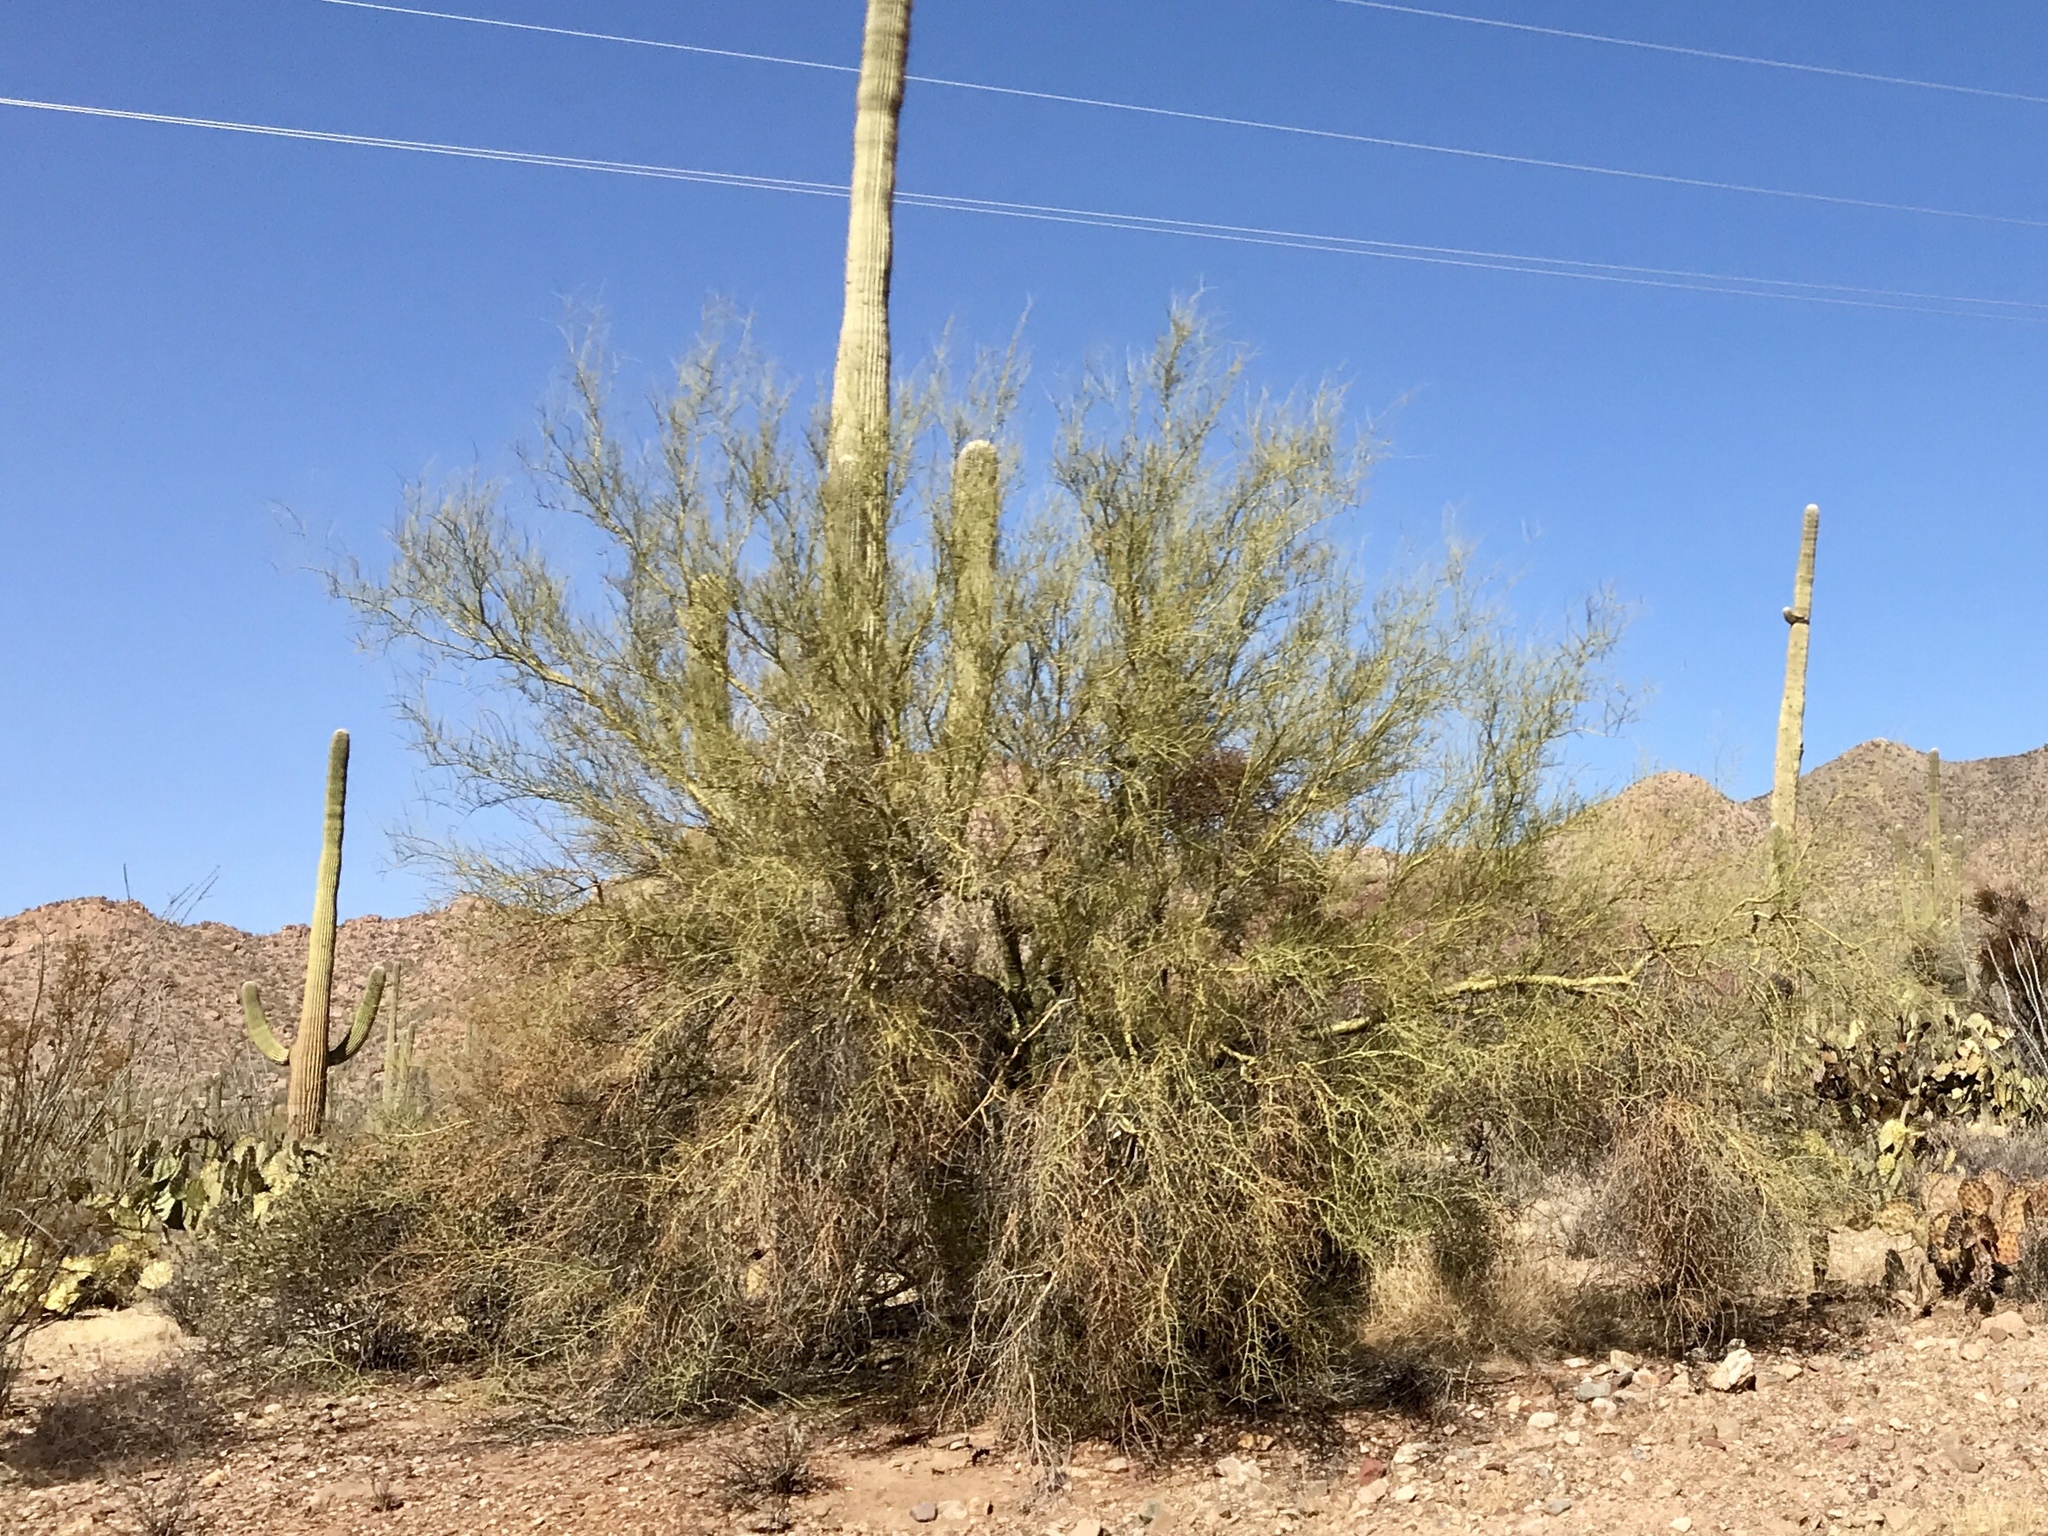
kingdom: Plantae
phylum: Tracheophyta
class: Magnoliopsida
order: Fabales
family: Fabaceae
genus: Parkinsonia
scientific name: Parkinsonia microphylla
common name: Yellow paloverde
